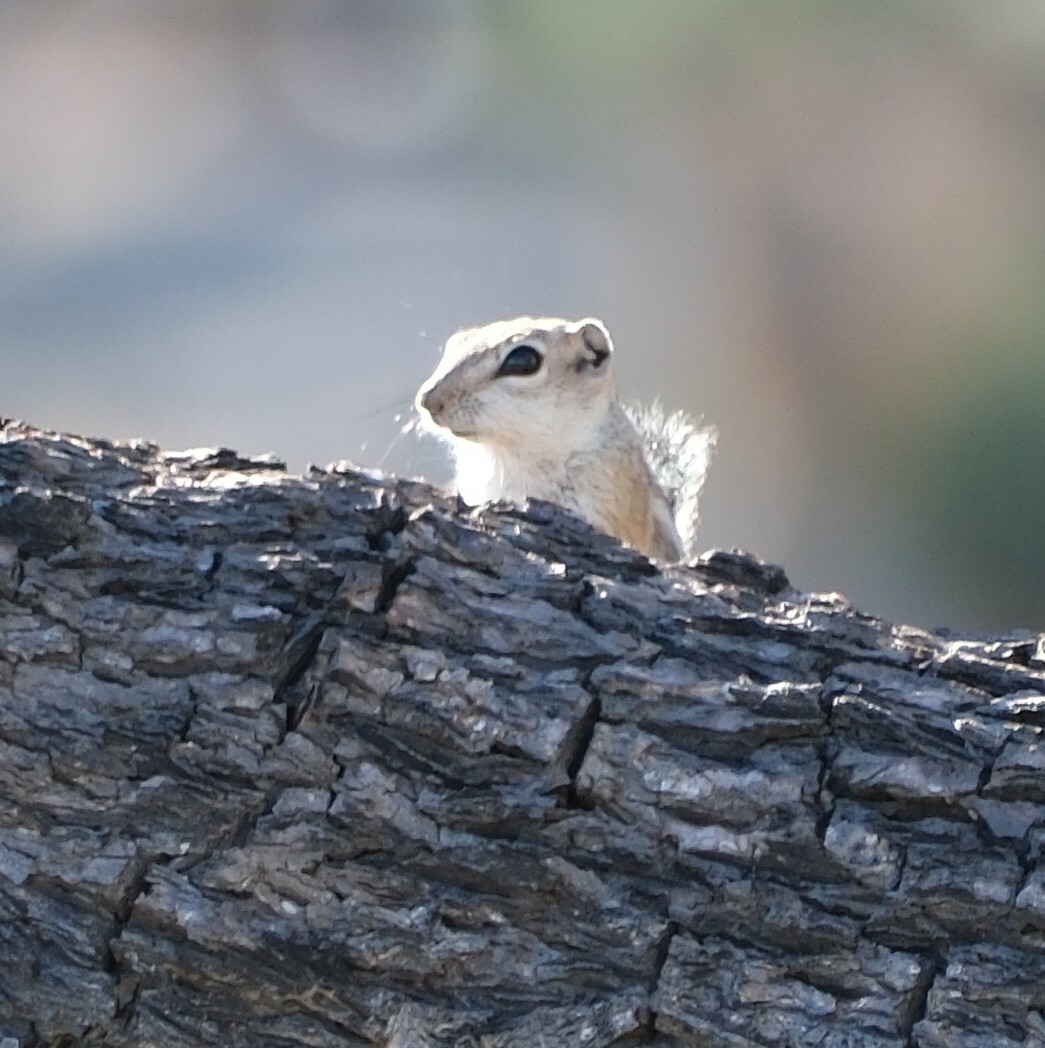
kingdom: Animalia
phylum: Chordata
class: Mammalia
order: Rodentia
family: Sciuridae
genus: Ammospermophilus
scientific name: Ammospermophilus leucurus
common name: White-tailed antelope squirrel
